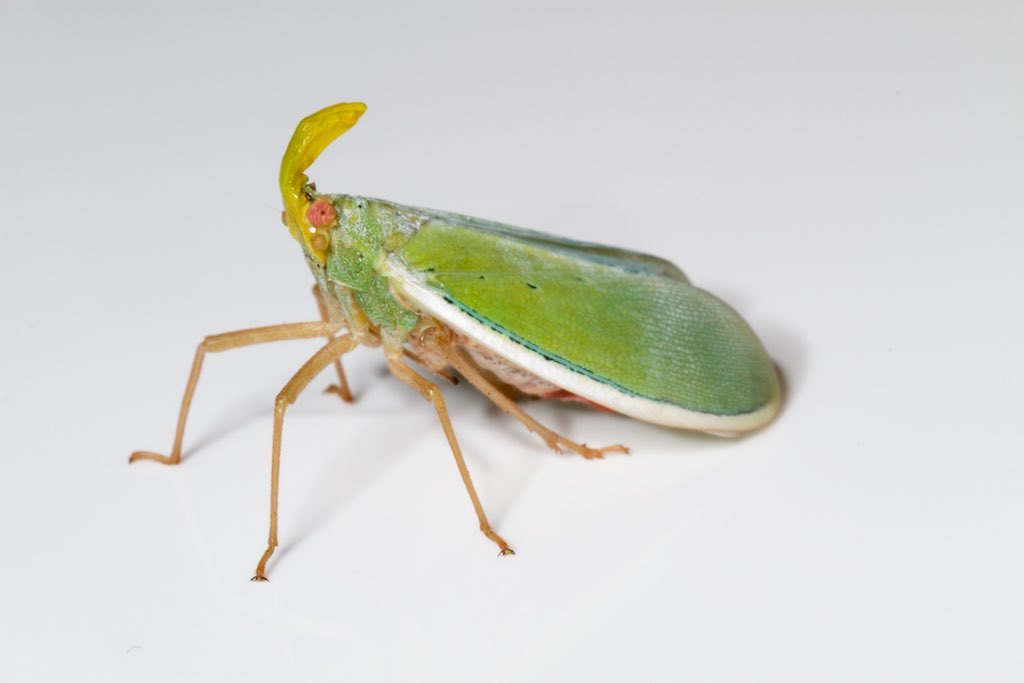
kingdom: Animalia
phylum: Arthropoda
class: Insecta
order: Hemiptera
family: Fulgoridae
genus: Enchophora
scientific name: Enchophora prasina
